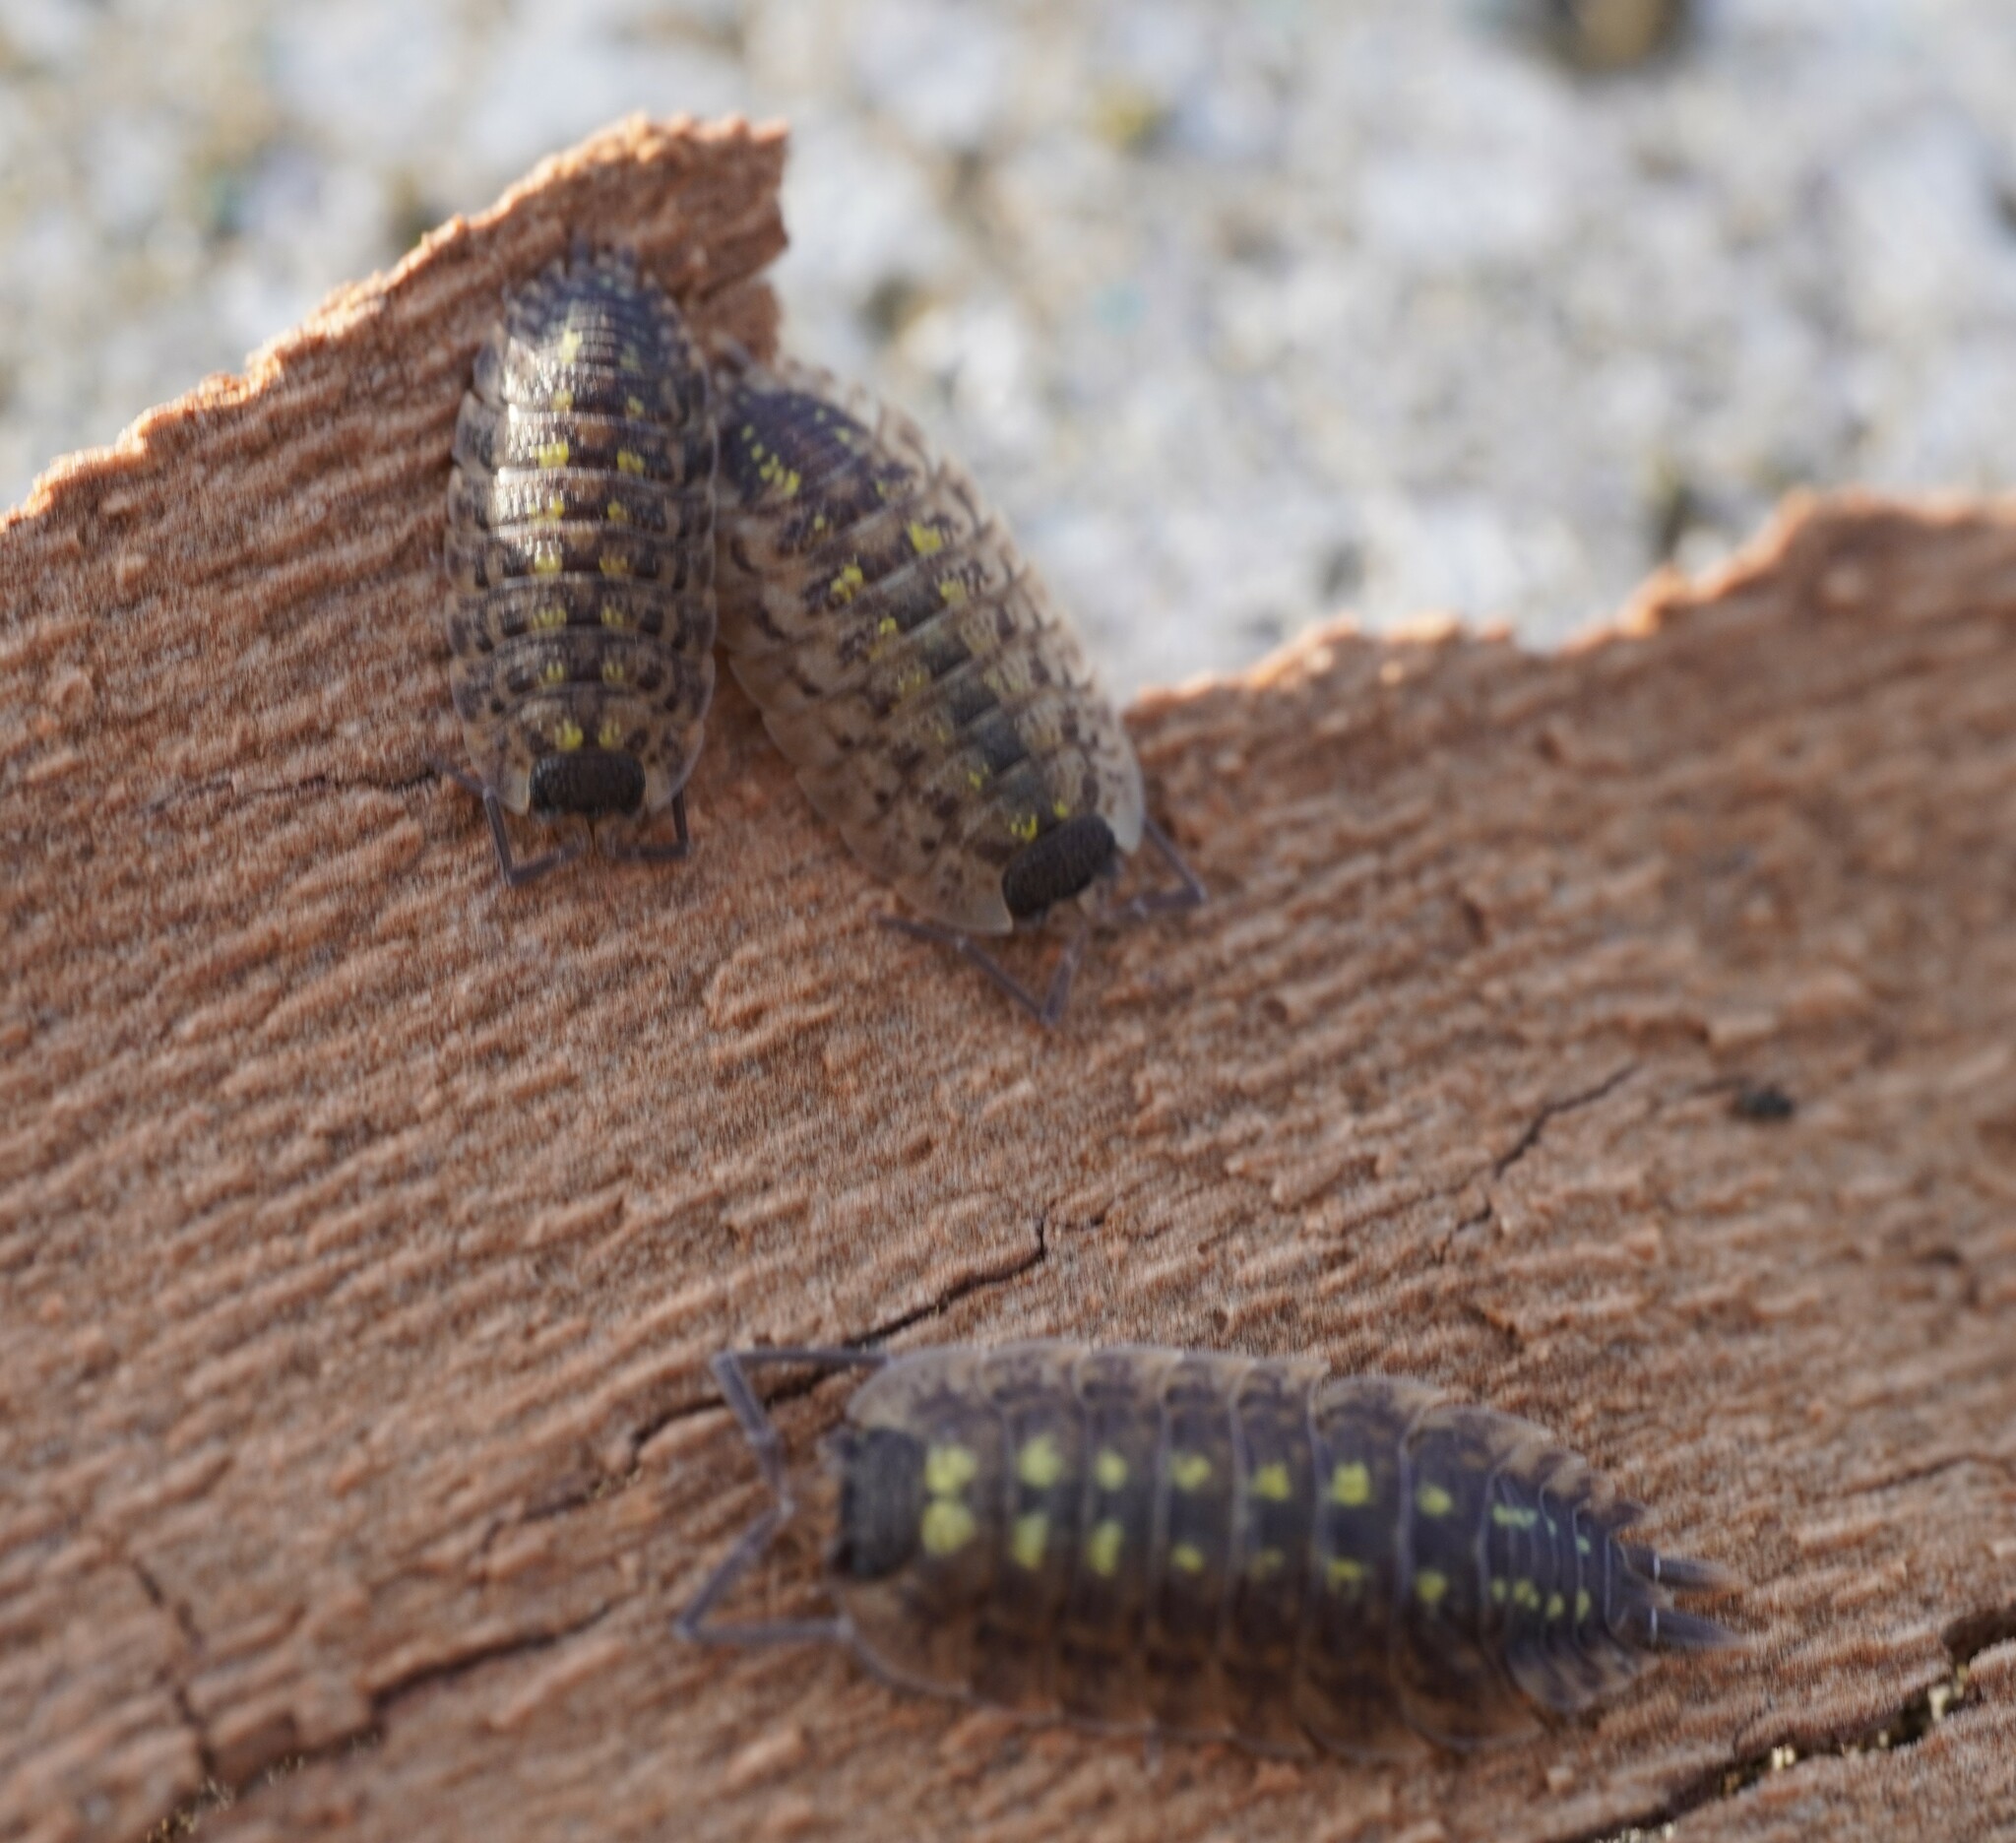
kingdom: Animalia
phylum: Arthropoda
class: Malacostraca
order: Isopoda
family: Porcellionidae
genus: Porcellio
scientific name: Porcellio spinicornis
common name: Painted woodlouse
